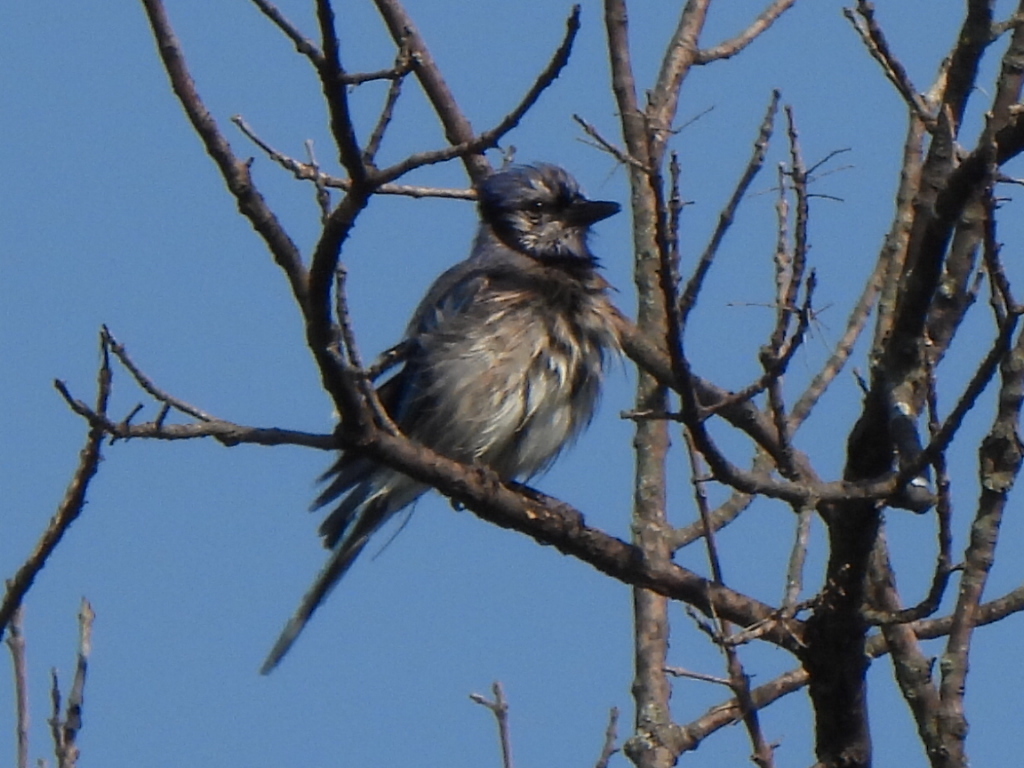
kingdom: Animalia
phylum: Chordata
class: Aves
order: Passeriformes
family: Corvidae
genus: Cyanocitta
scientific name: Cyanocitta cristata
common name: Blue jay
